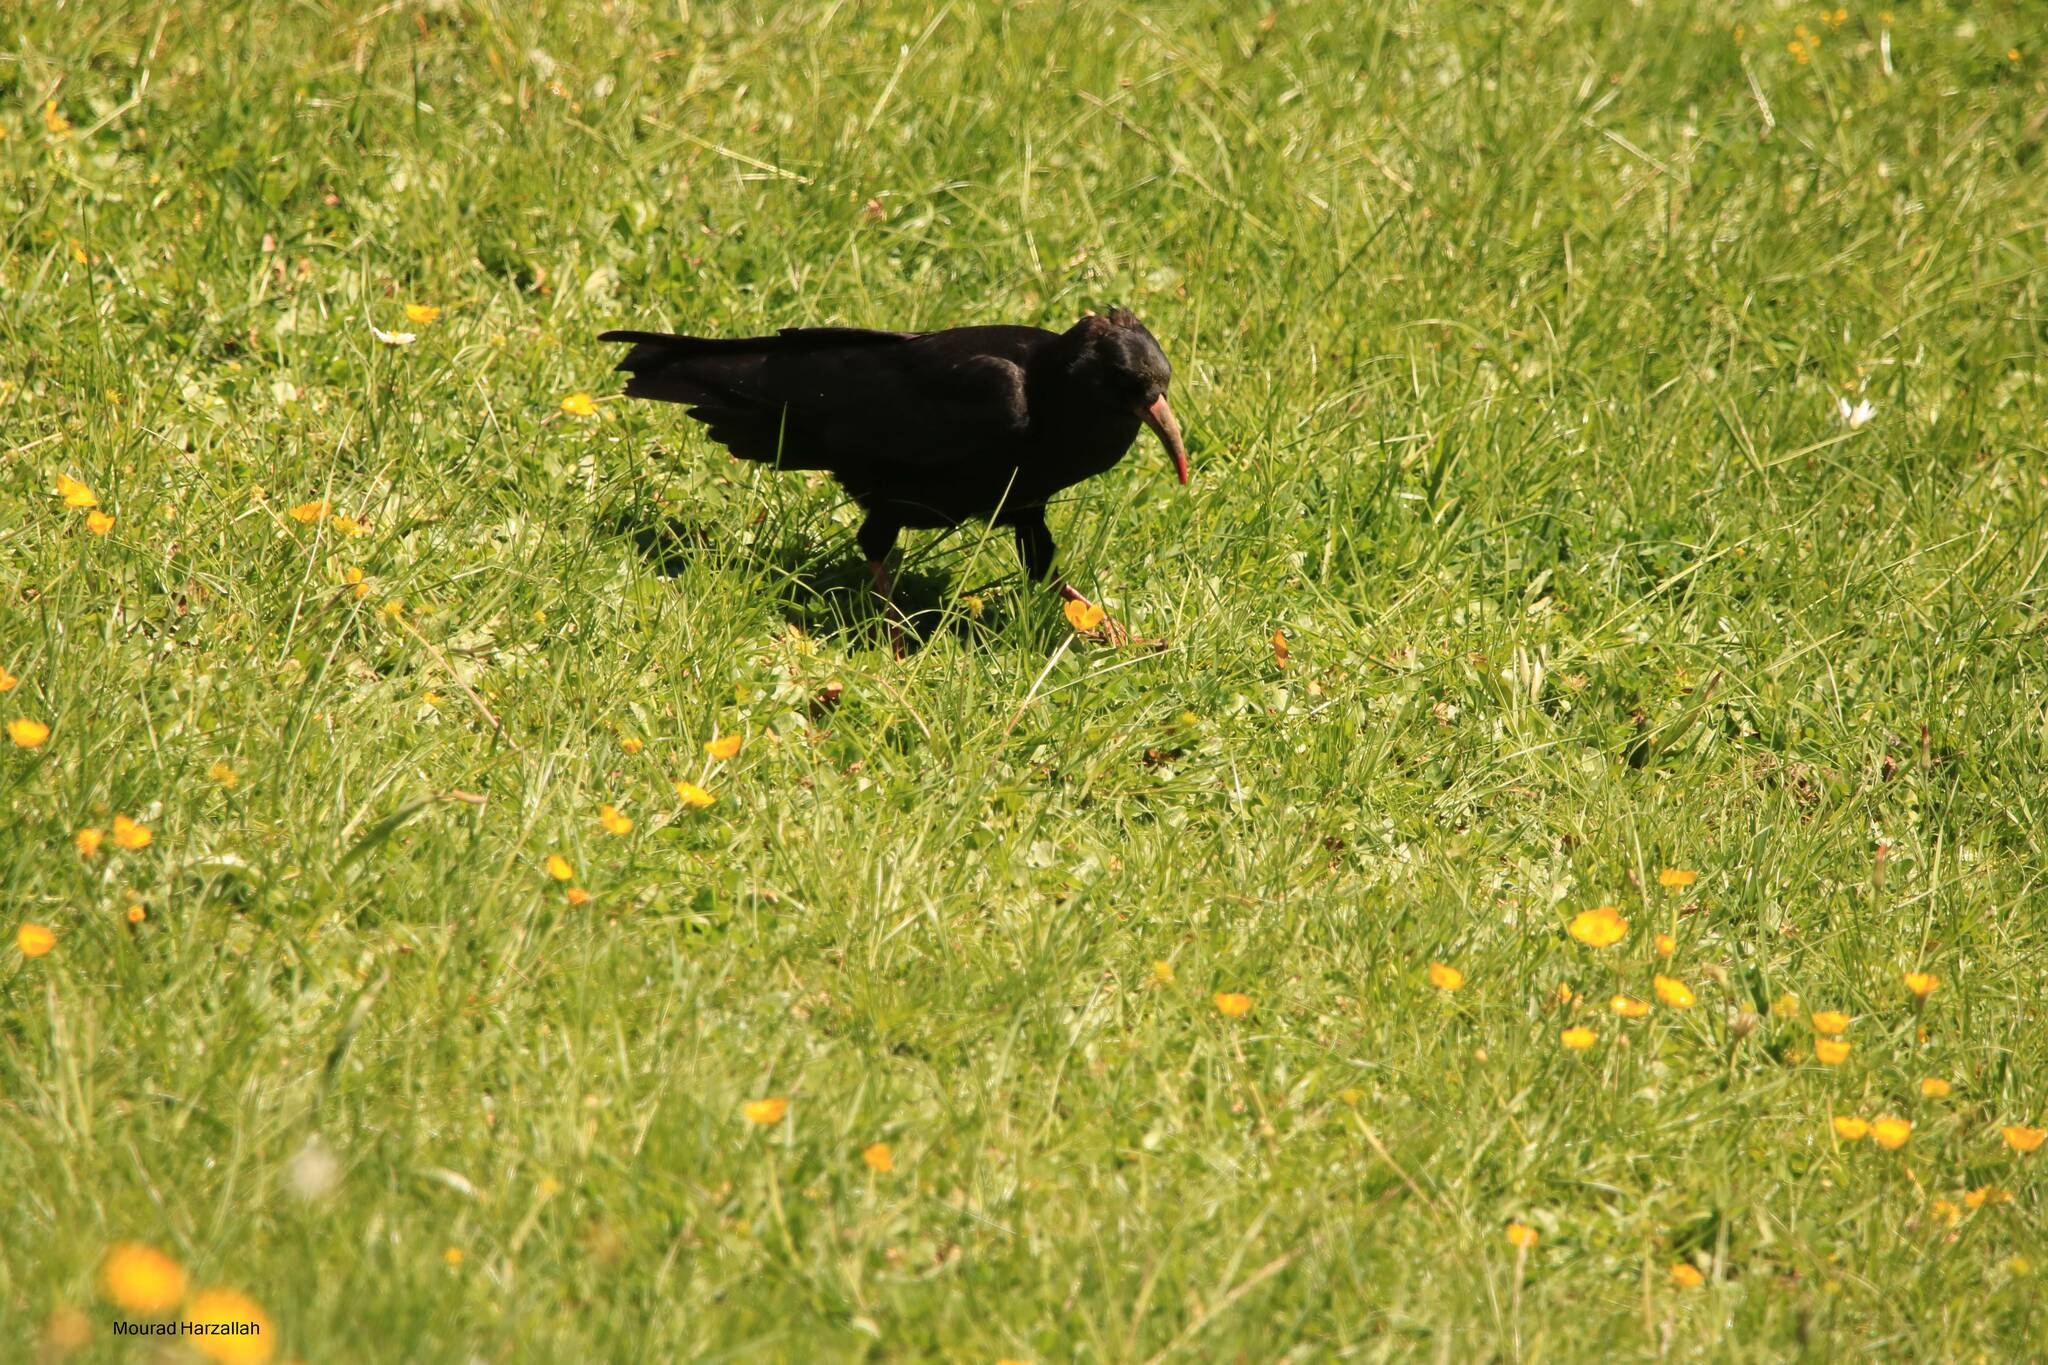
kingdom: Animalia
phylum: Chordata
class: Aves
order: Passeriformes
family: Corvidae
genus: Pyrrhocorax
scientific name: Pyrrhocorax pyrrhocorax
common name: Red-billed chough
